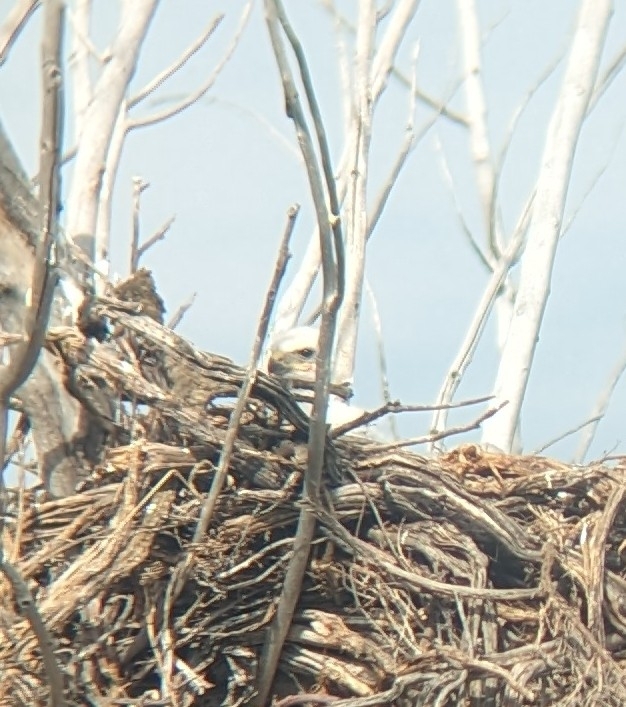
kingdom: Animalia
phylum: Chordata
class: Aves
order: Accipitriformes
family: Accipitridae
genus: Buteo
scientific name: Buteo regalis
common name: Ferruginous hawk
